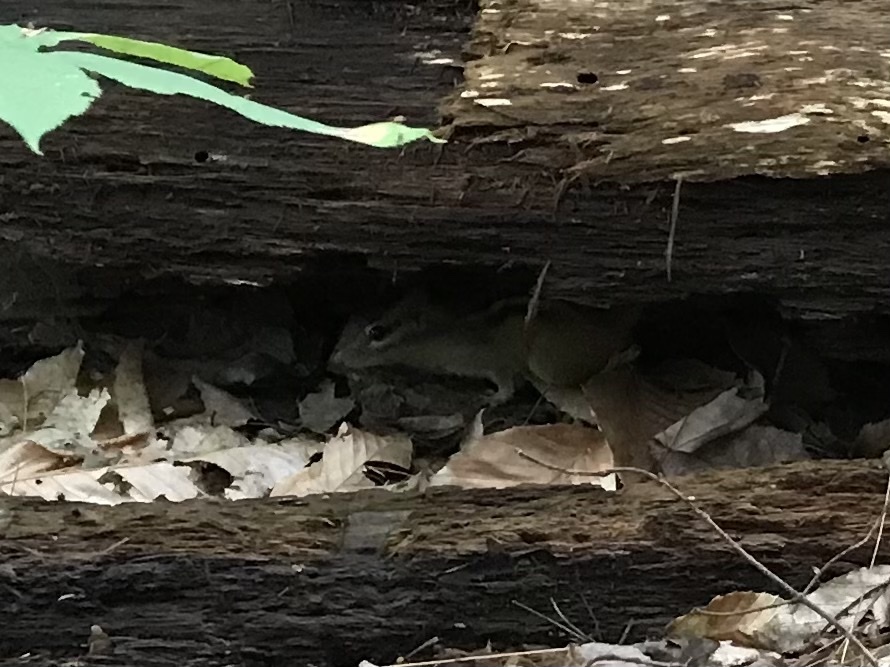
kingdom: Animalia
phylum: Chordata
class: Mammalia
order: Rodentia
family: Sciuridae
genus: Tamias
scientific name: Tamias striatus
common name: Eastern chipmunk
